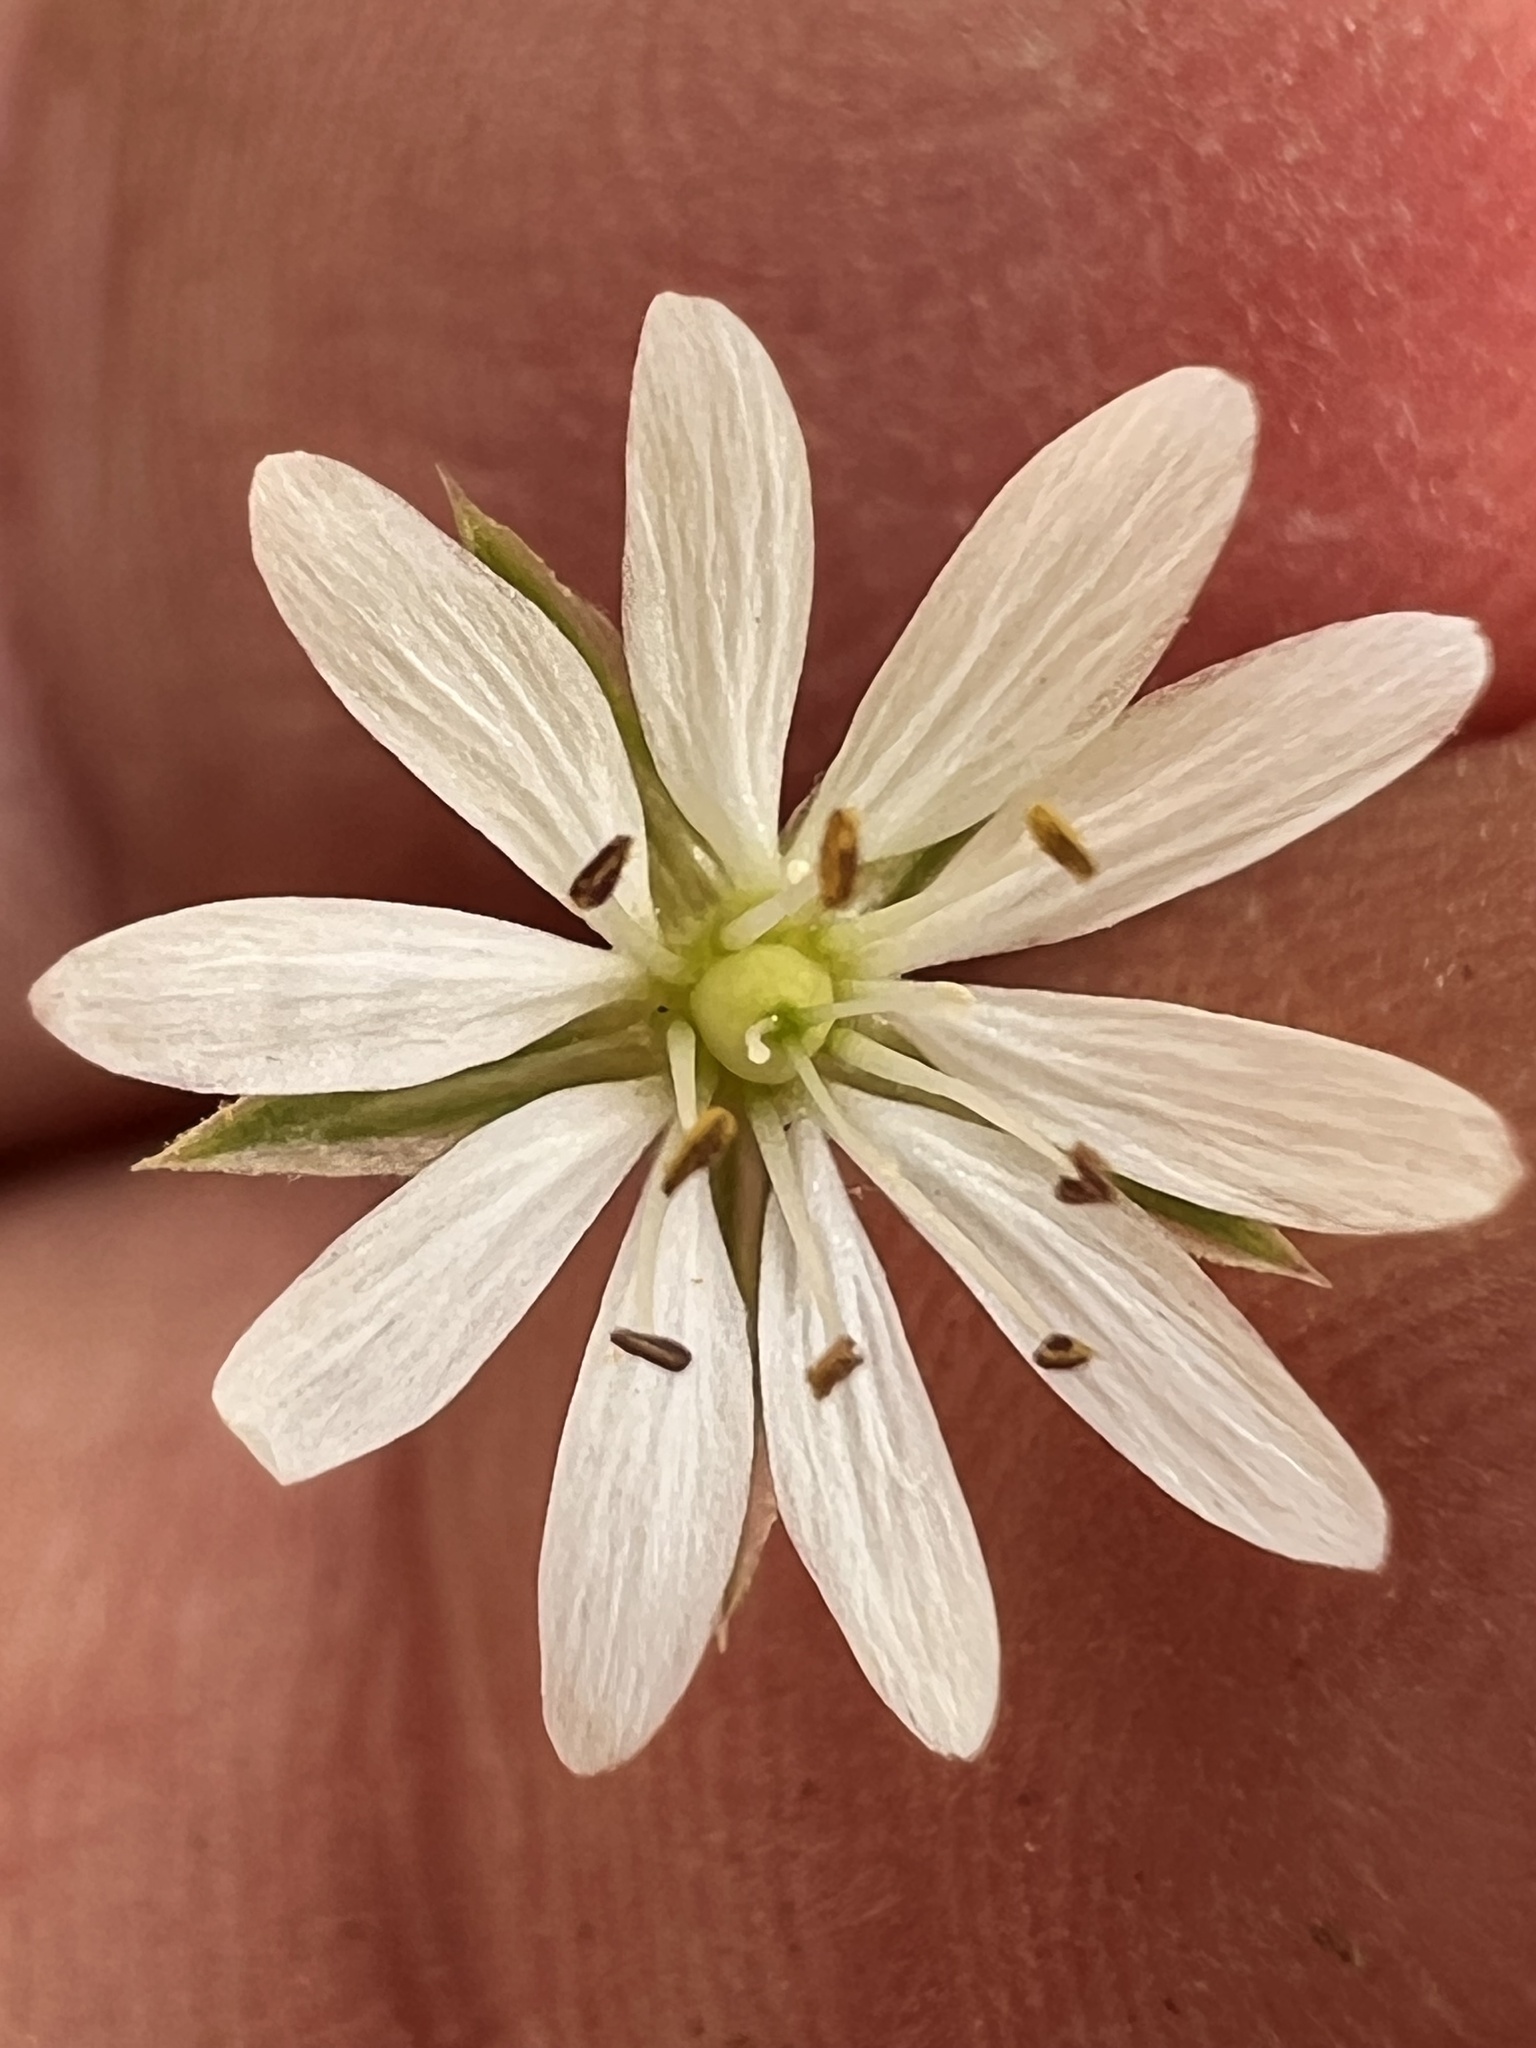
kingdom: Plantae
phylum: Tracheophyta
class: Magnoliopsida
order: Caryophyllales
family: Caryophyllaceae
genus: Stellaria
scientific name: Stellaria graminea
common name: Grass-like starwort
